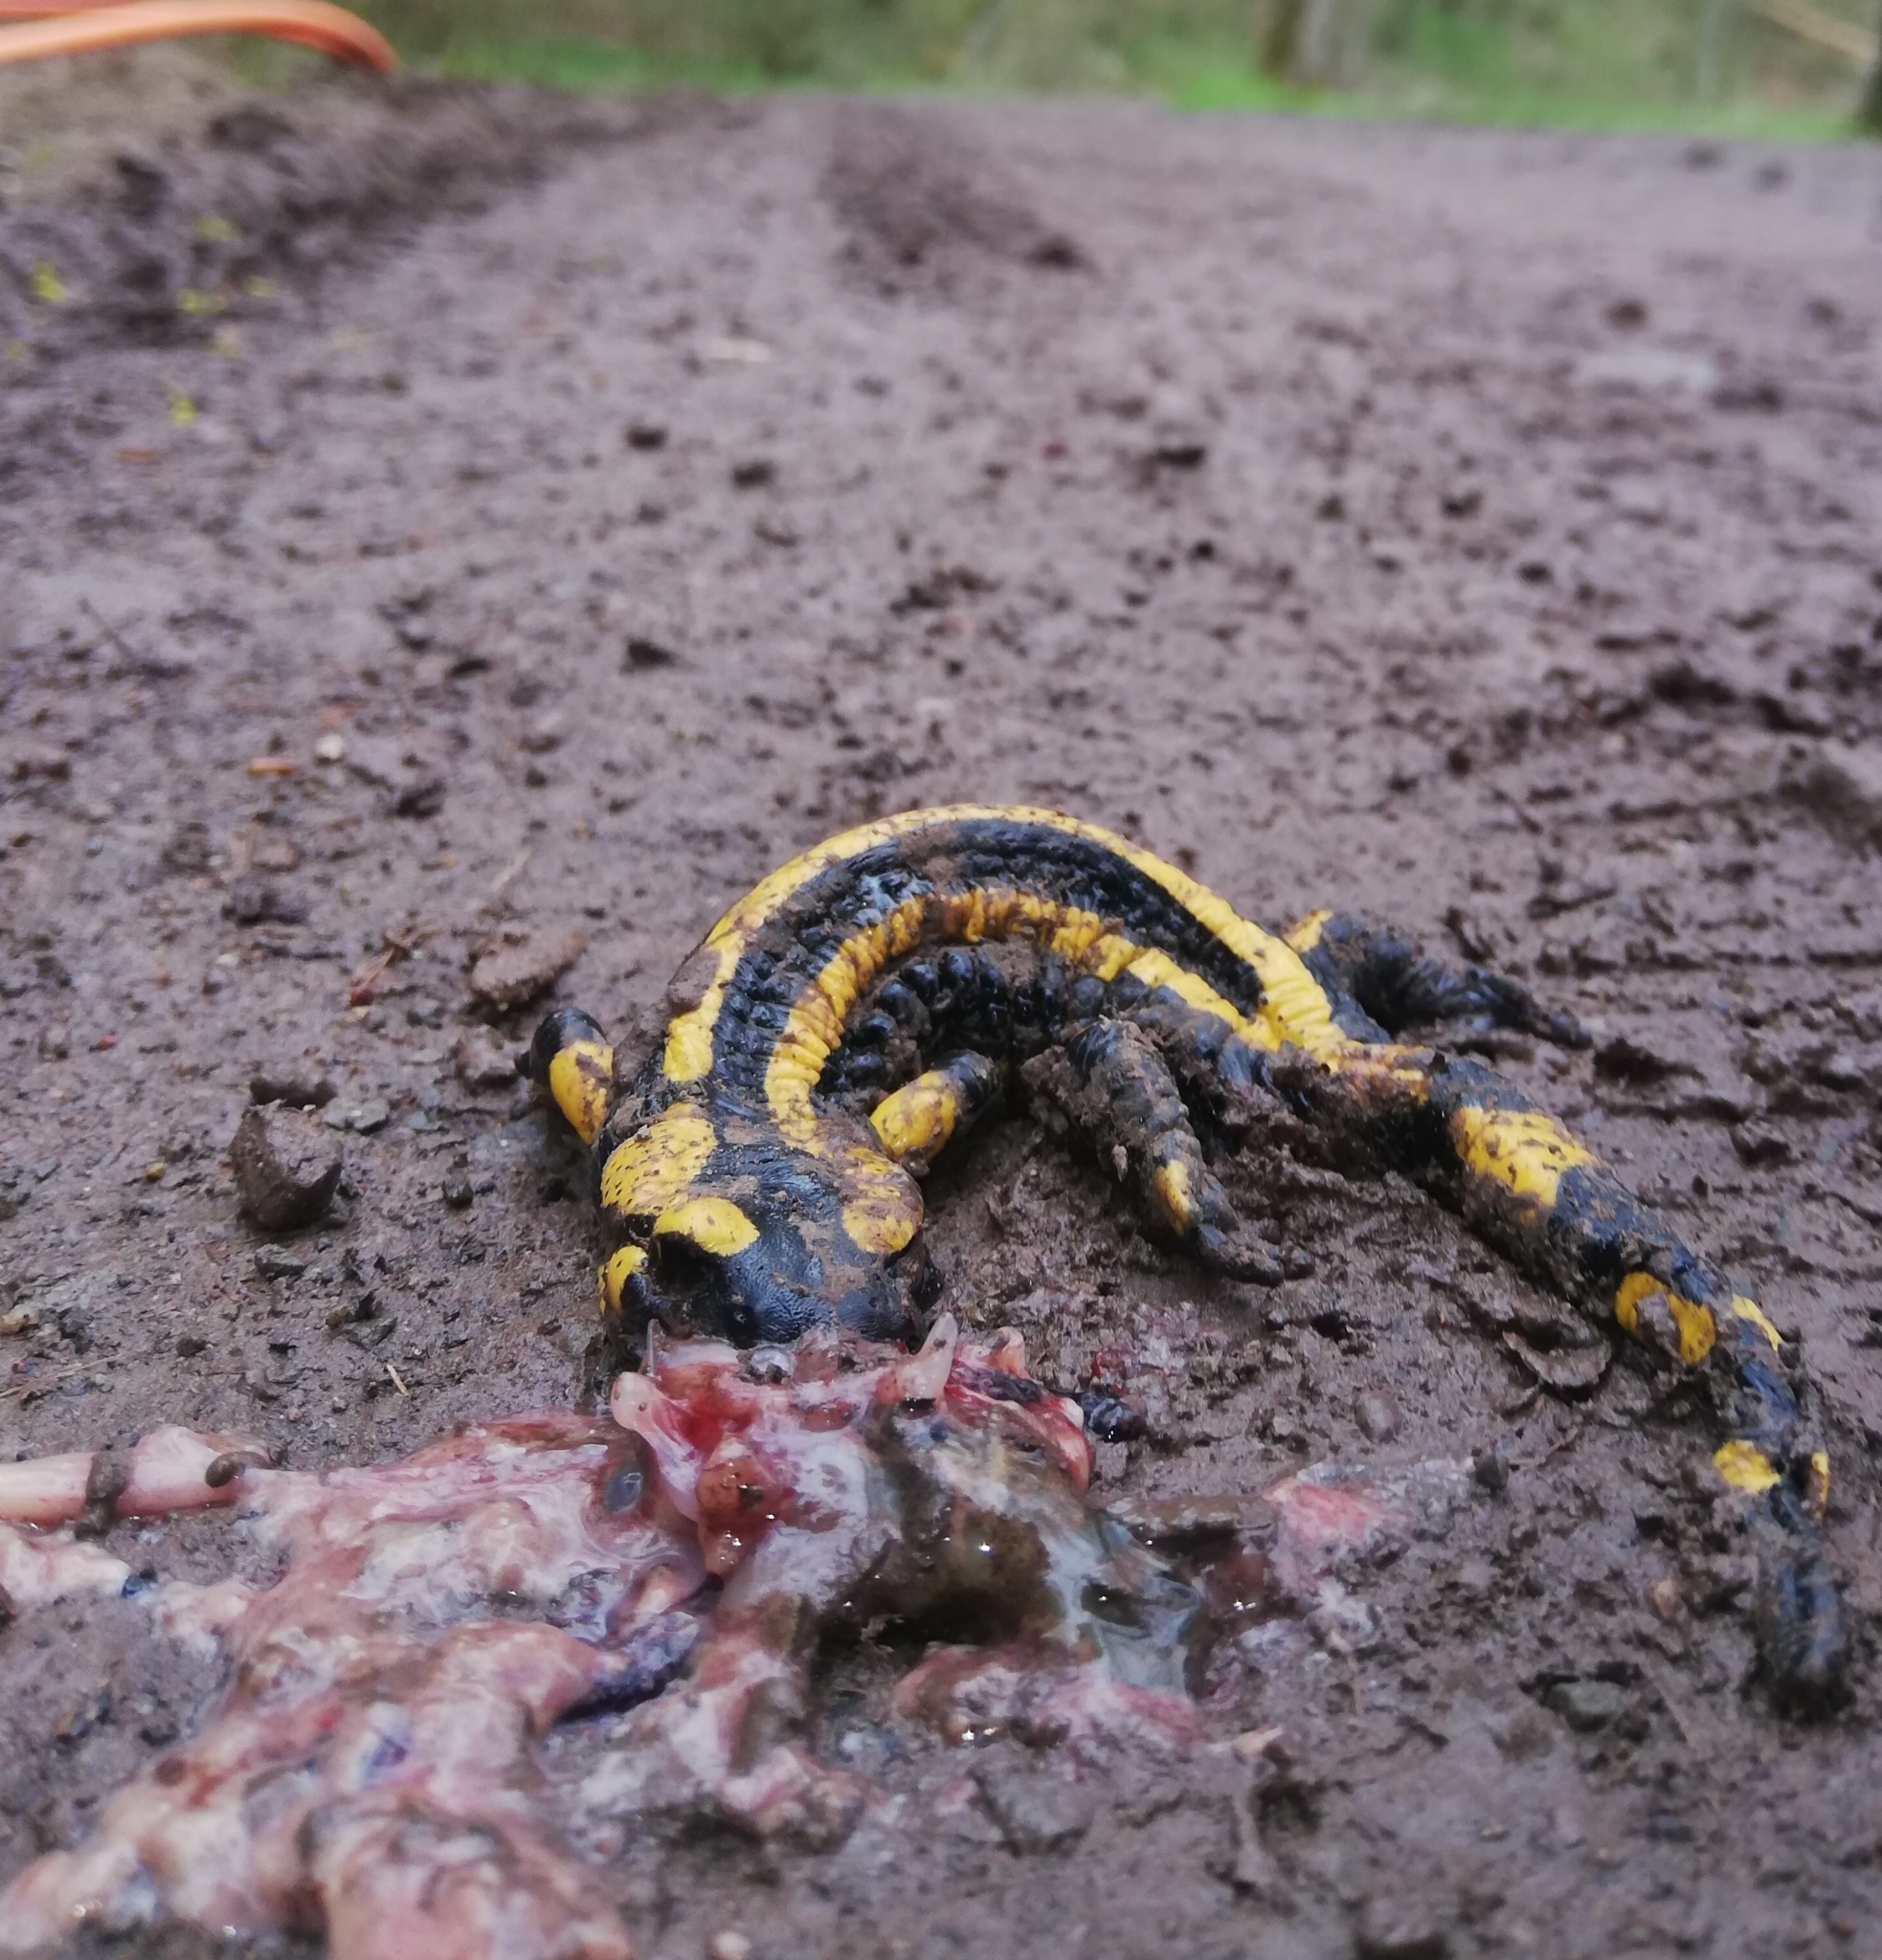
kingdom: Animalia
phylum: Chordata
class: Amphibia
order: Caudata
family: Salamandridae
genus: Salamandra
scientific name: Salamandra salamandra
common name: Fire salamander
